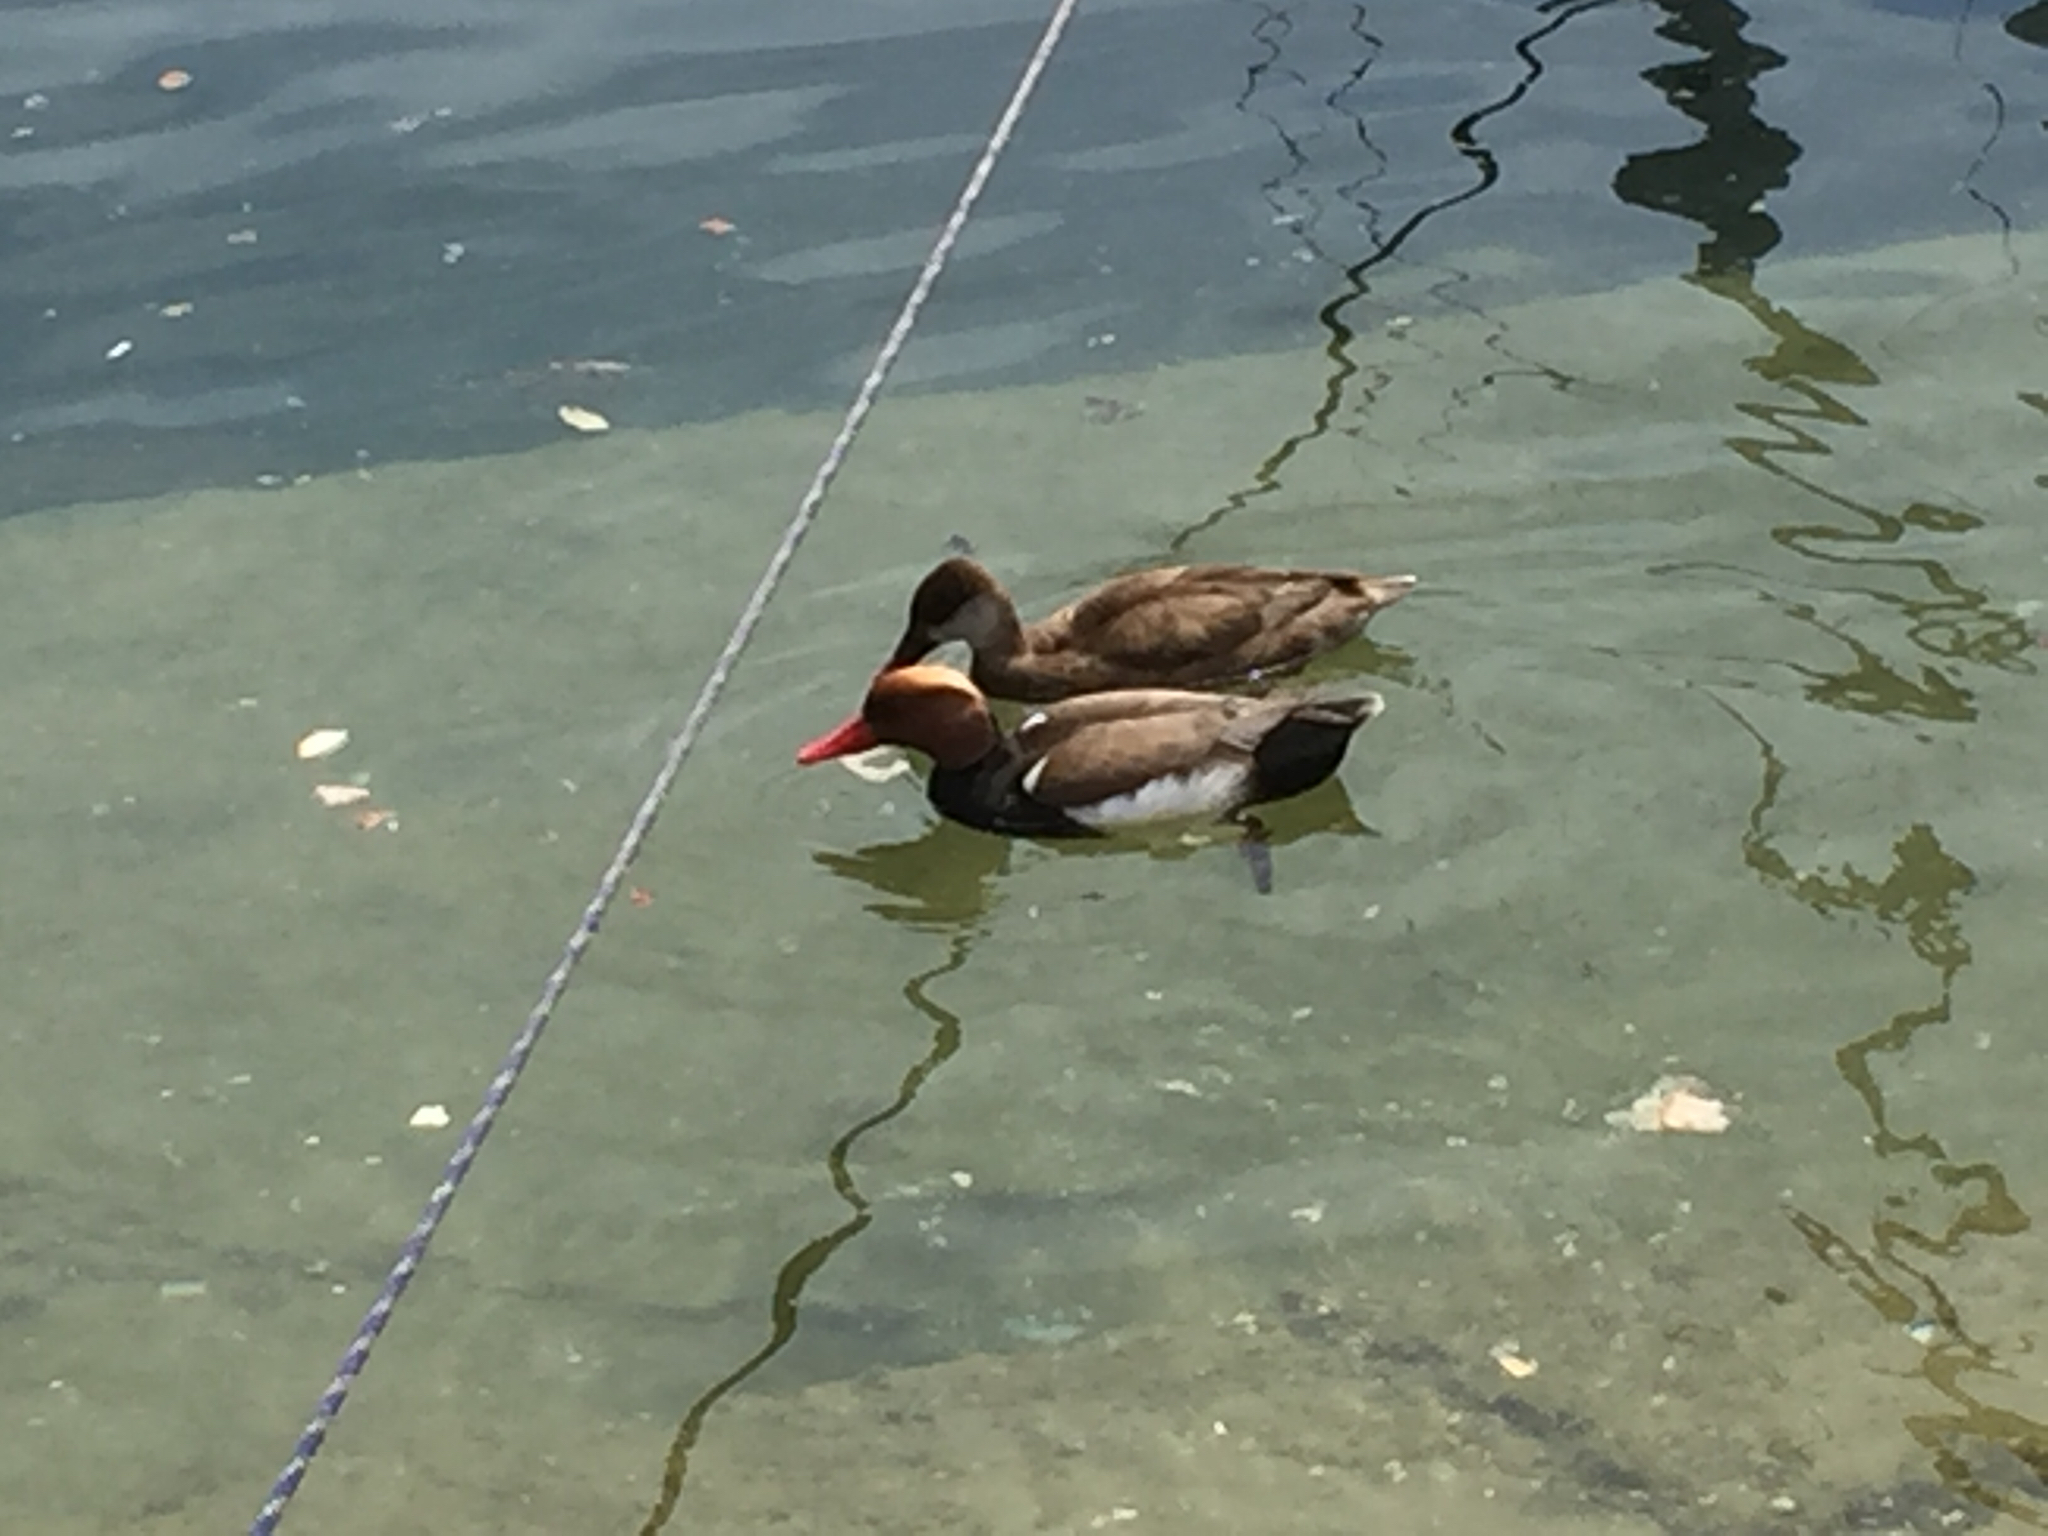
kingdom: Animalia
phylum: Chordata
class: Aves
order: Anseriformes
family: Anatidae
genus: Netta
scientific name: Netta rufina
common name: Red-crested pochard
